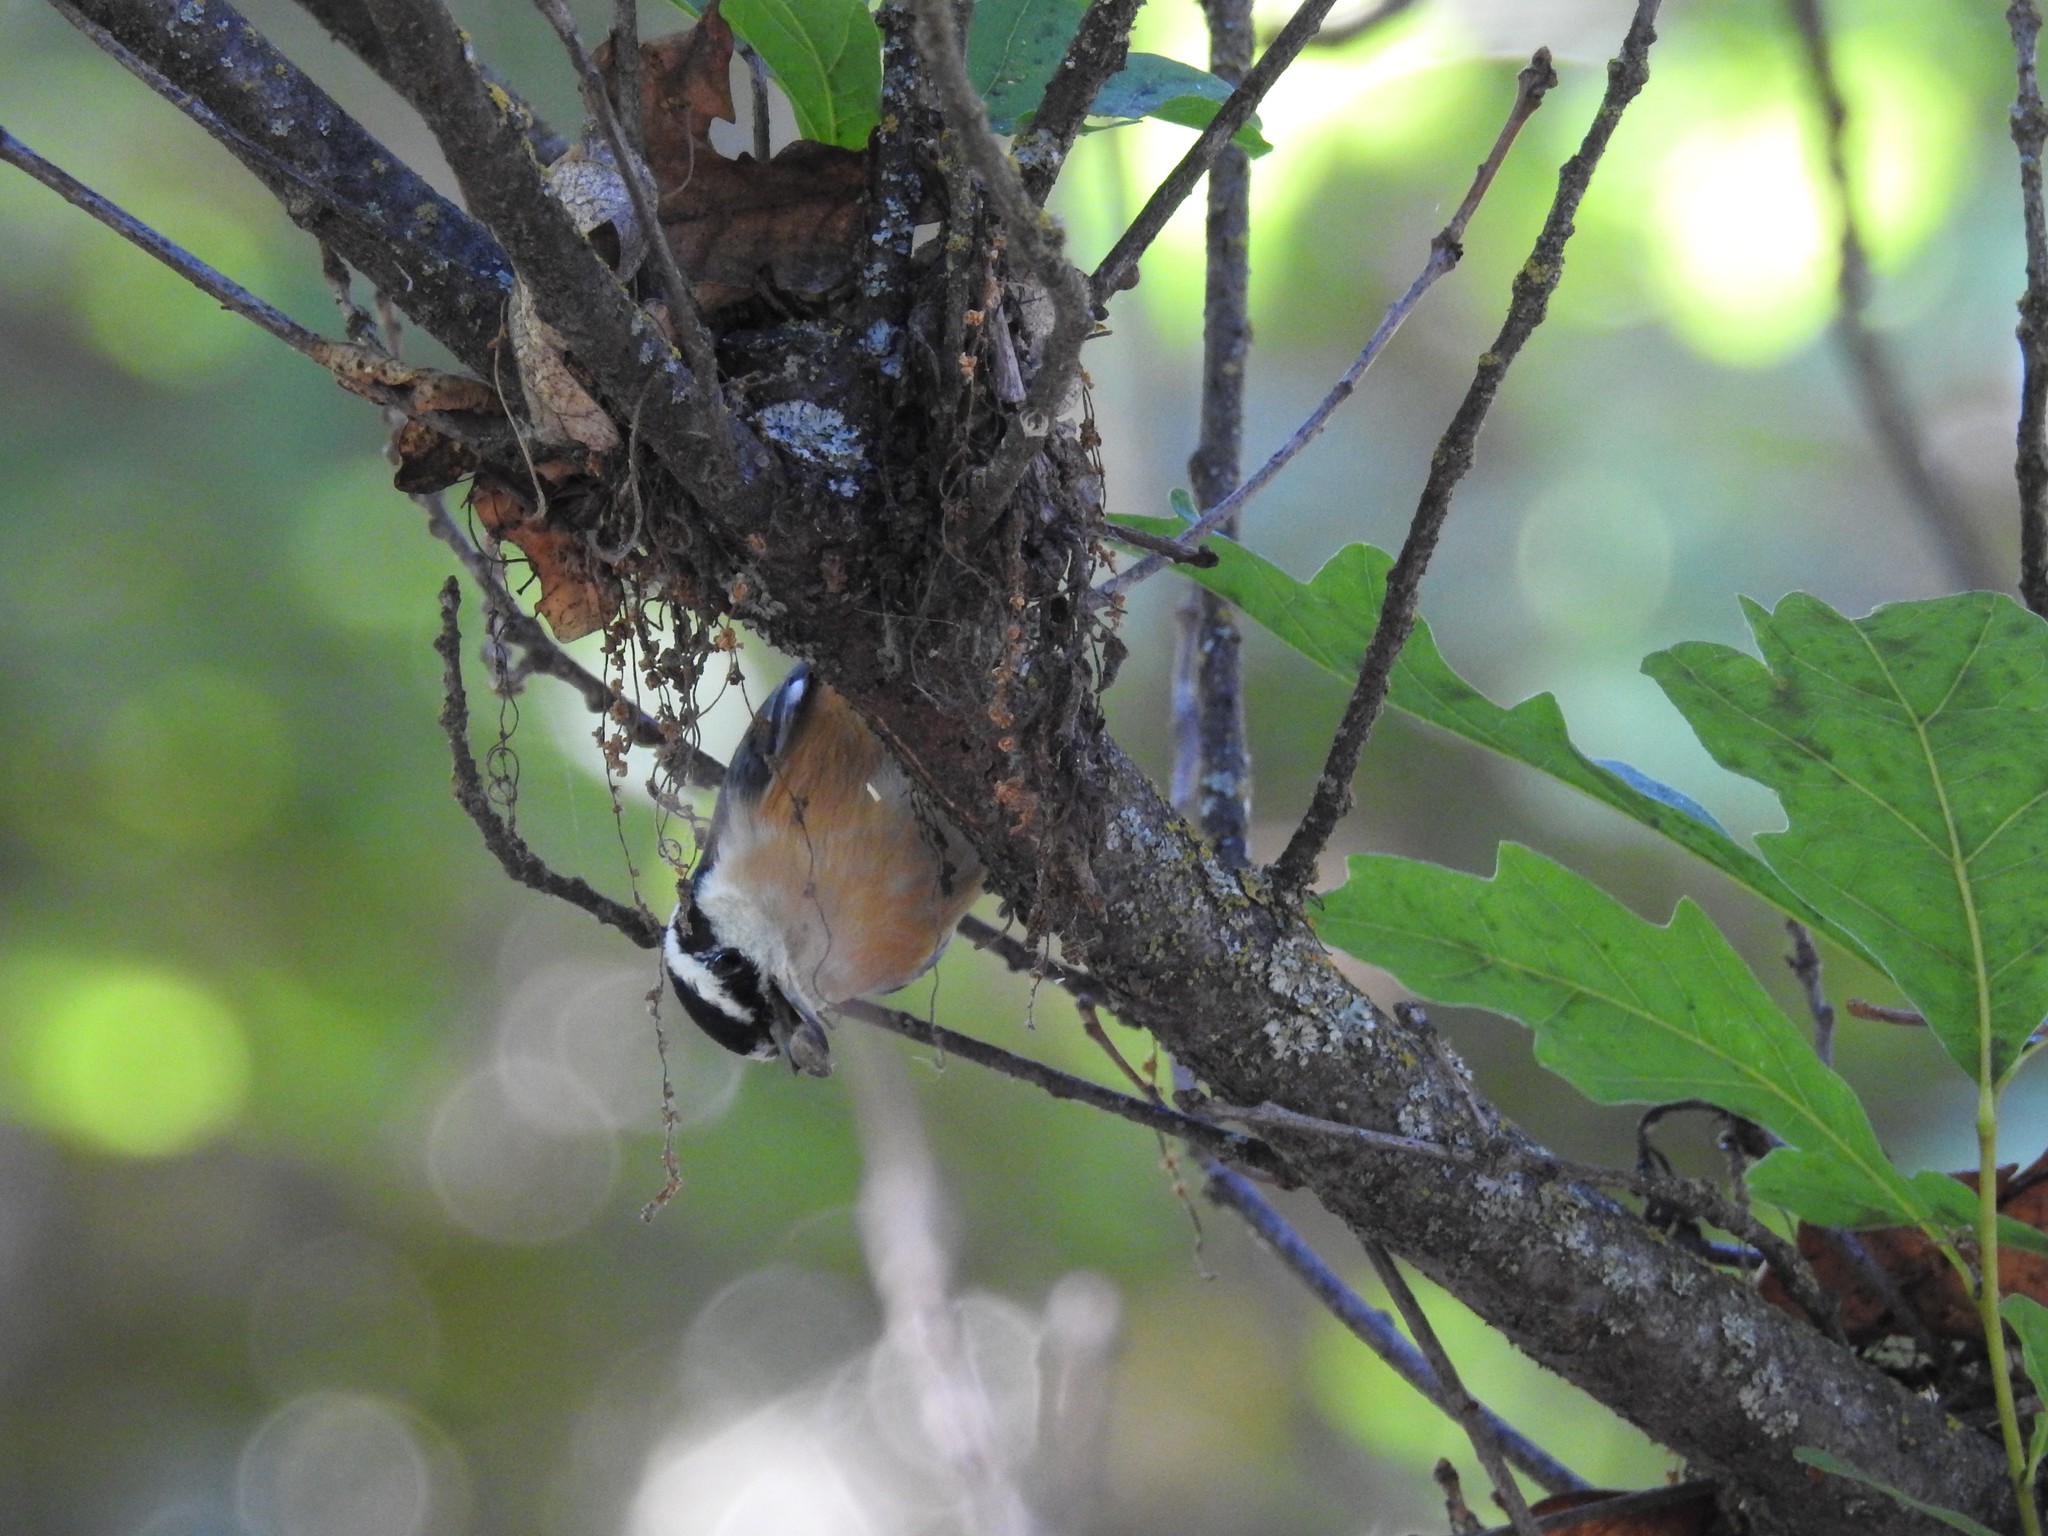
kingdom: Animalia
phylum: Chordata
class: Aves
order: Passeriformes
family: Sittidae
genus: Sitta
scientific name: Sitta canadensis
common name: Red-breasted nuthatch
